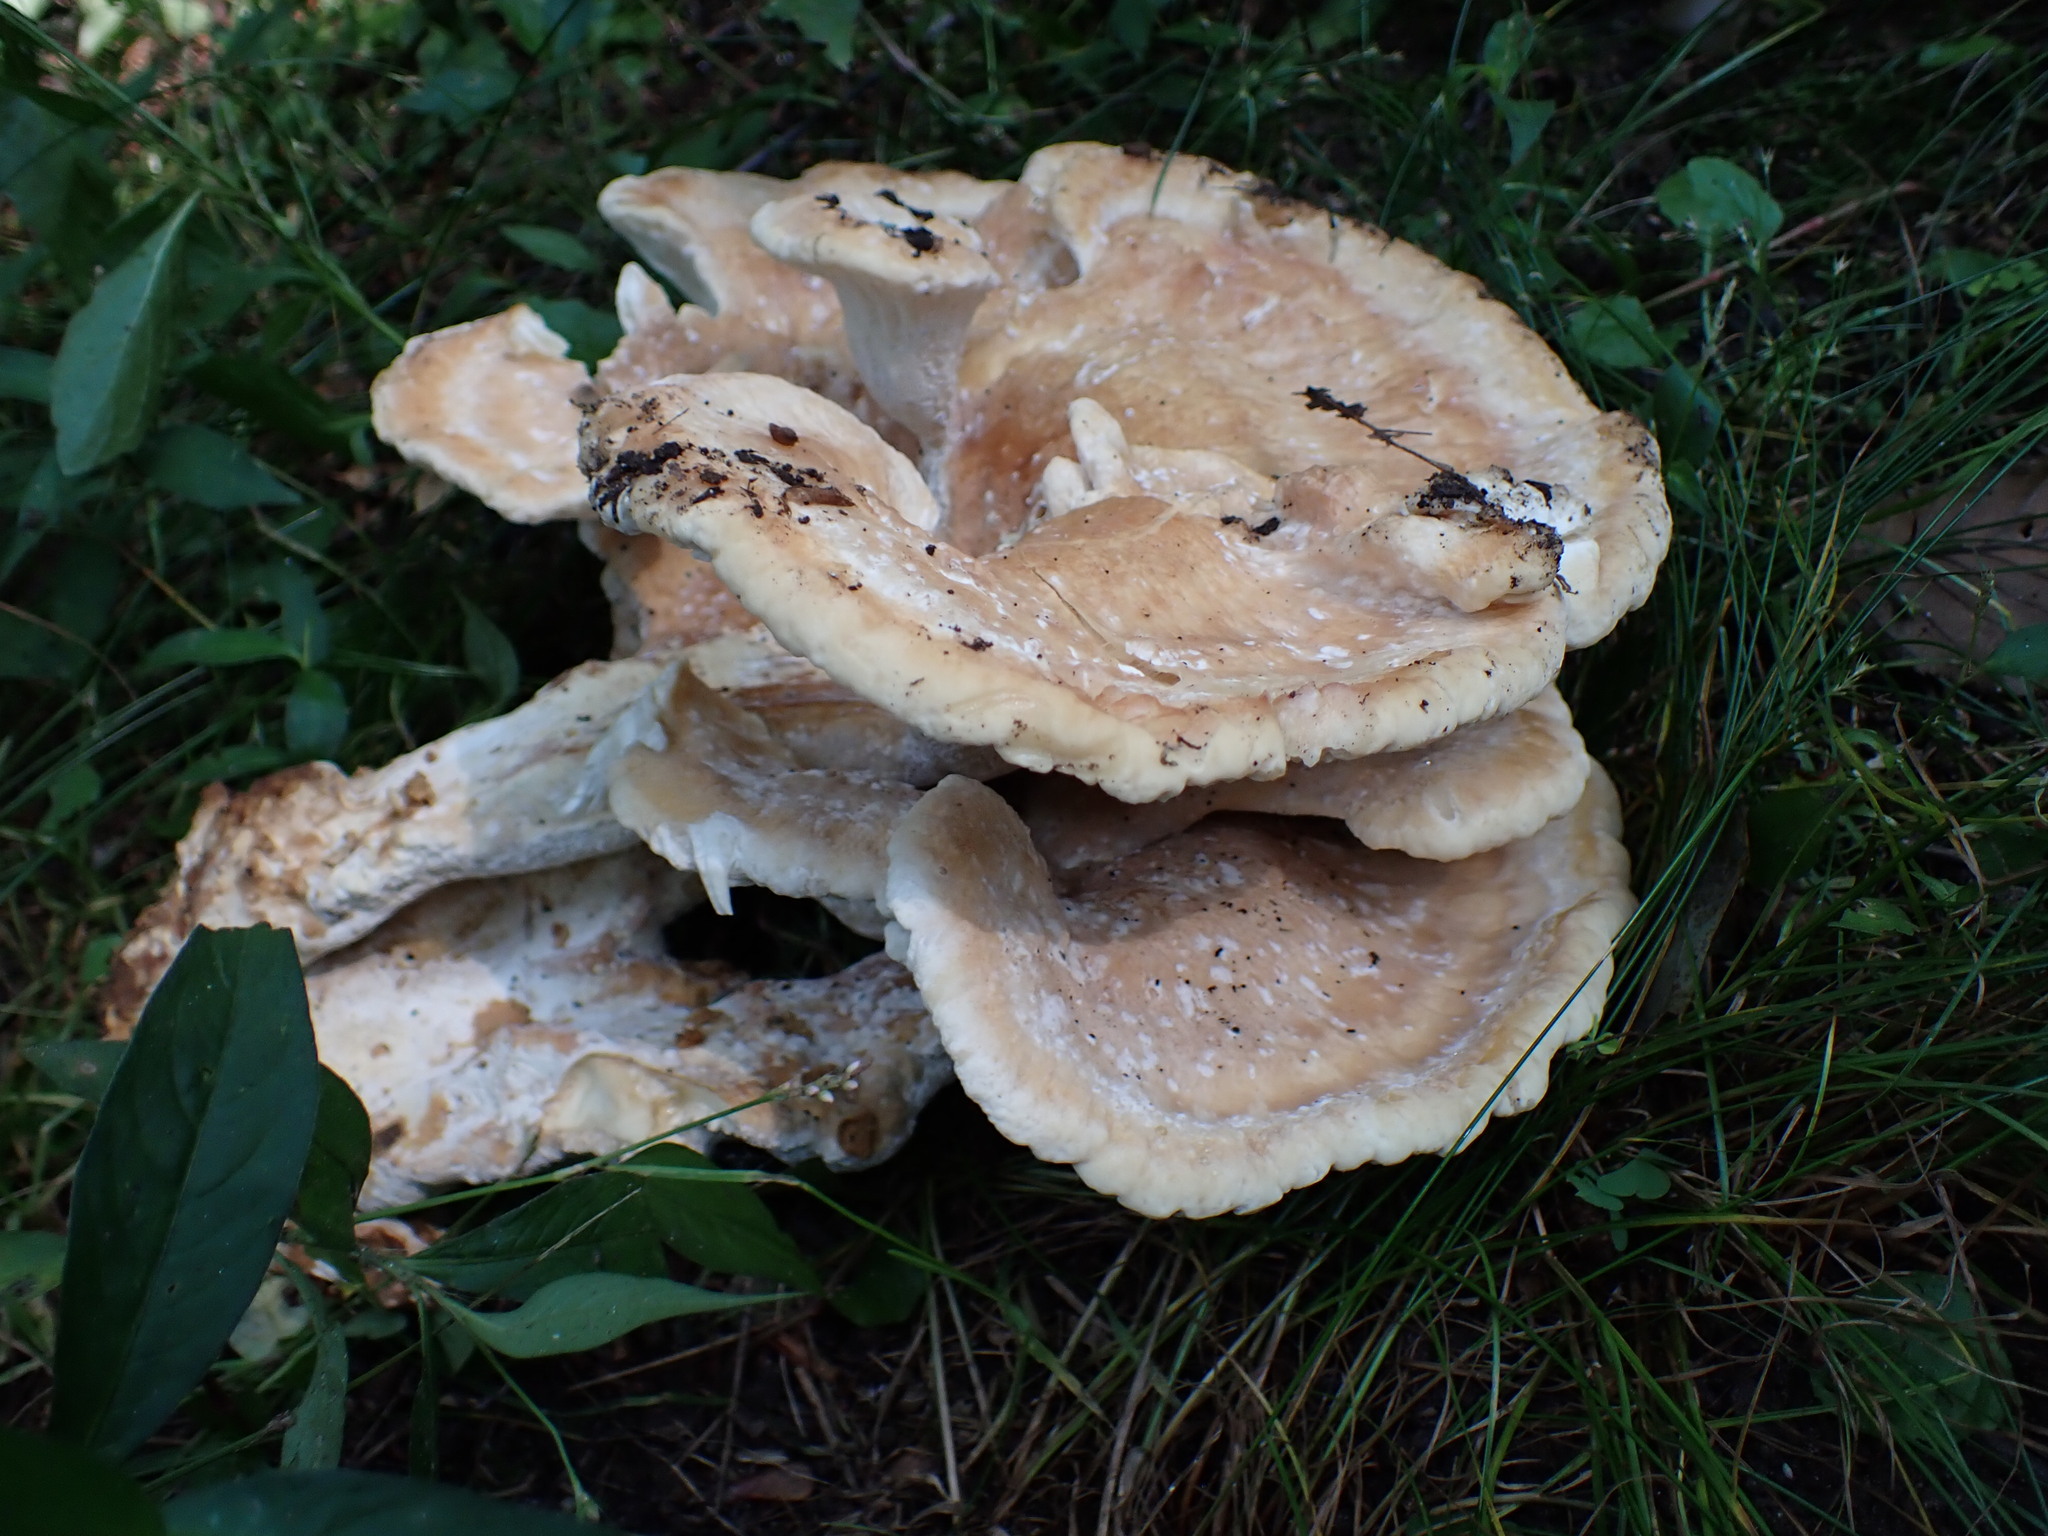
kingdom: Fungi
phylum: Basidiomycota
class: Agaricomycetes
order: Russulales
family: Bondarzewiaceae
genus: Bondarzewia
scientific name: Bondarzewia berkeleyi
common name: Berkeley's polypore
